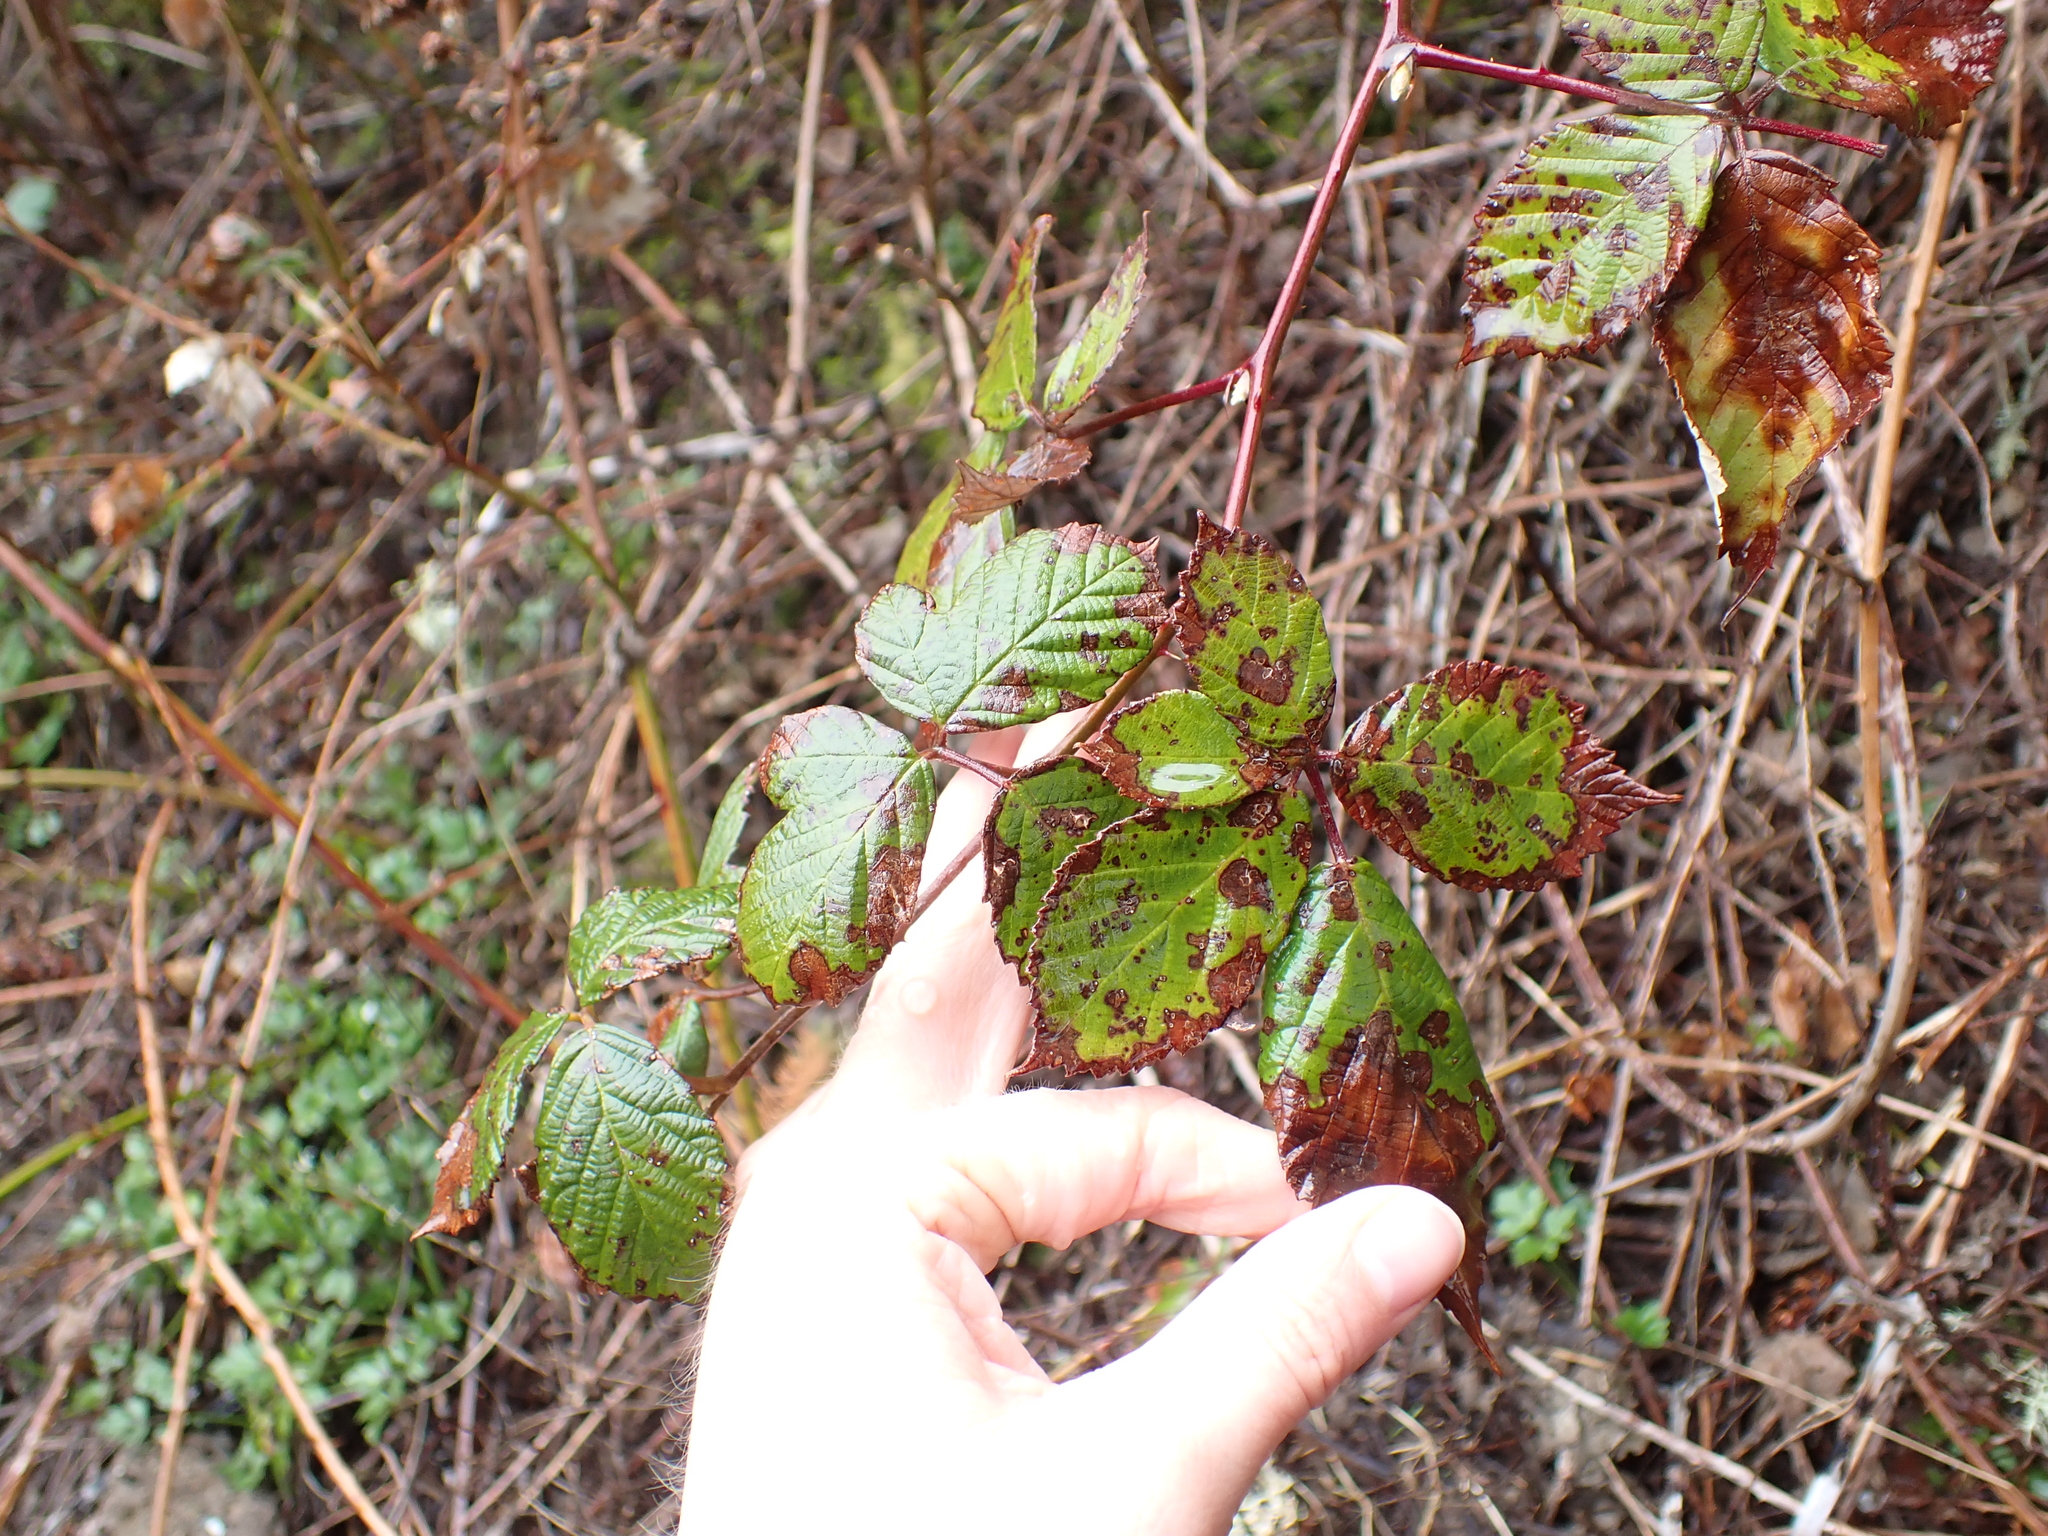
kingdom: Plantae
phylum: Tracheophyta
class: Magnoliopsida
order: Rosales
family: Rosaceae
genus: Rubus
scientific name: Rubus bifrons
